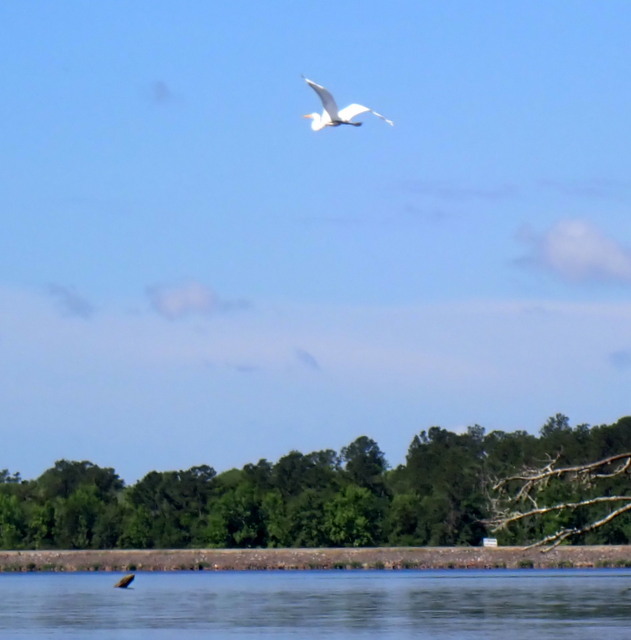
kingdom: Animalia
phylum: Chordata
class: Aves
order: Pelecaniformes
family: Ardeidae
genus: Ardea
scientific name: Ardea alba
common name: Great egret
